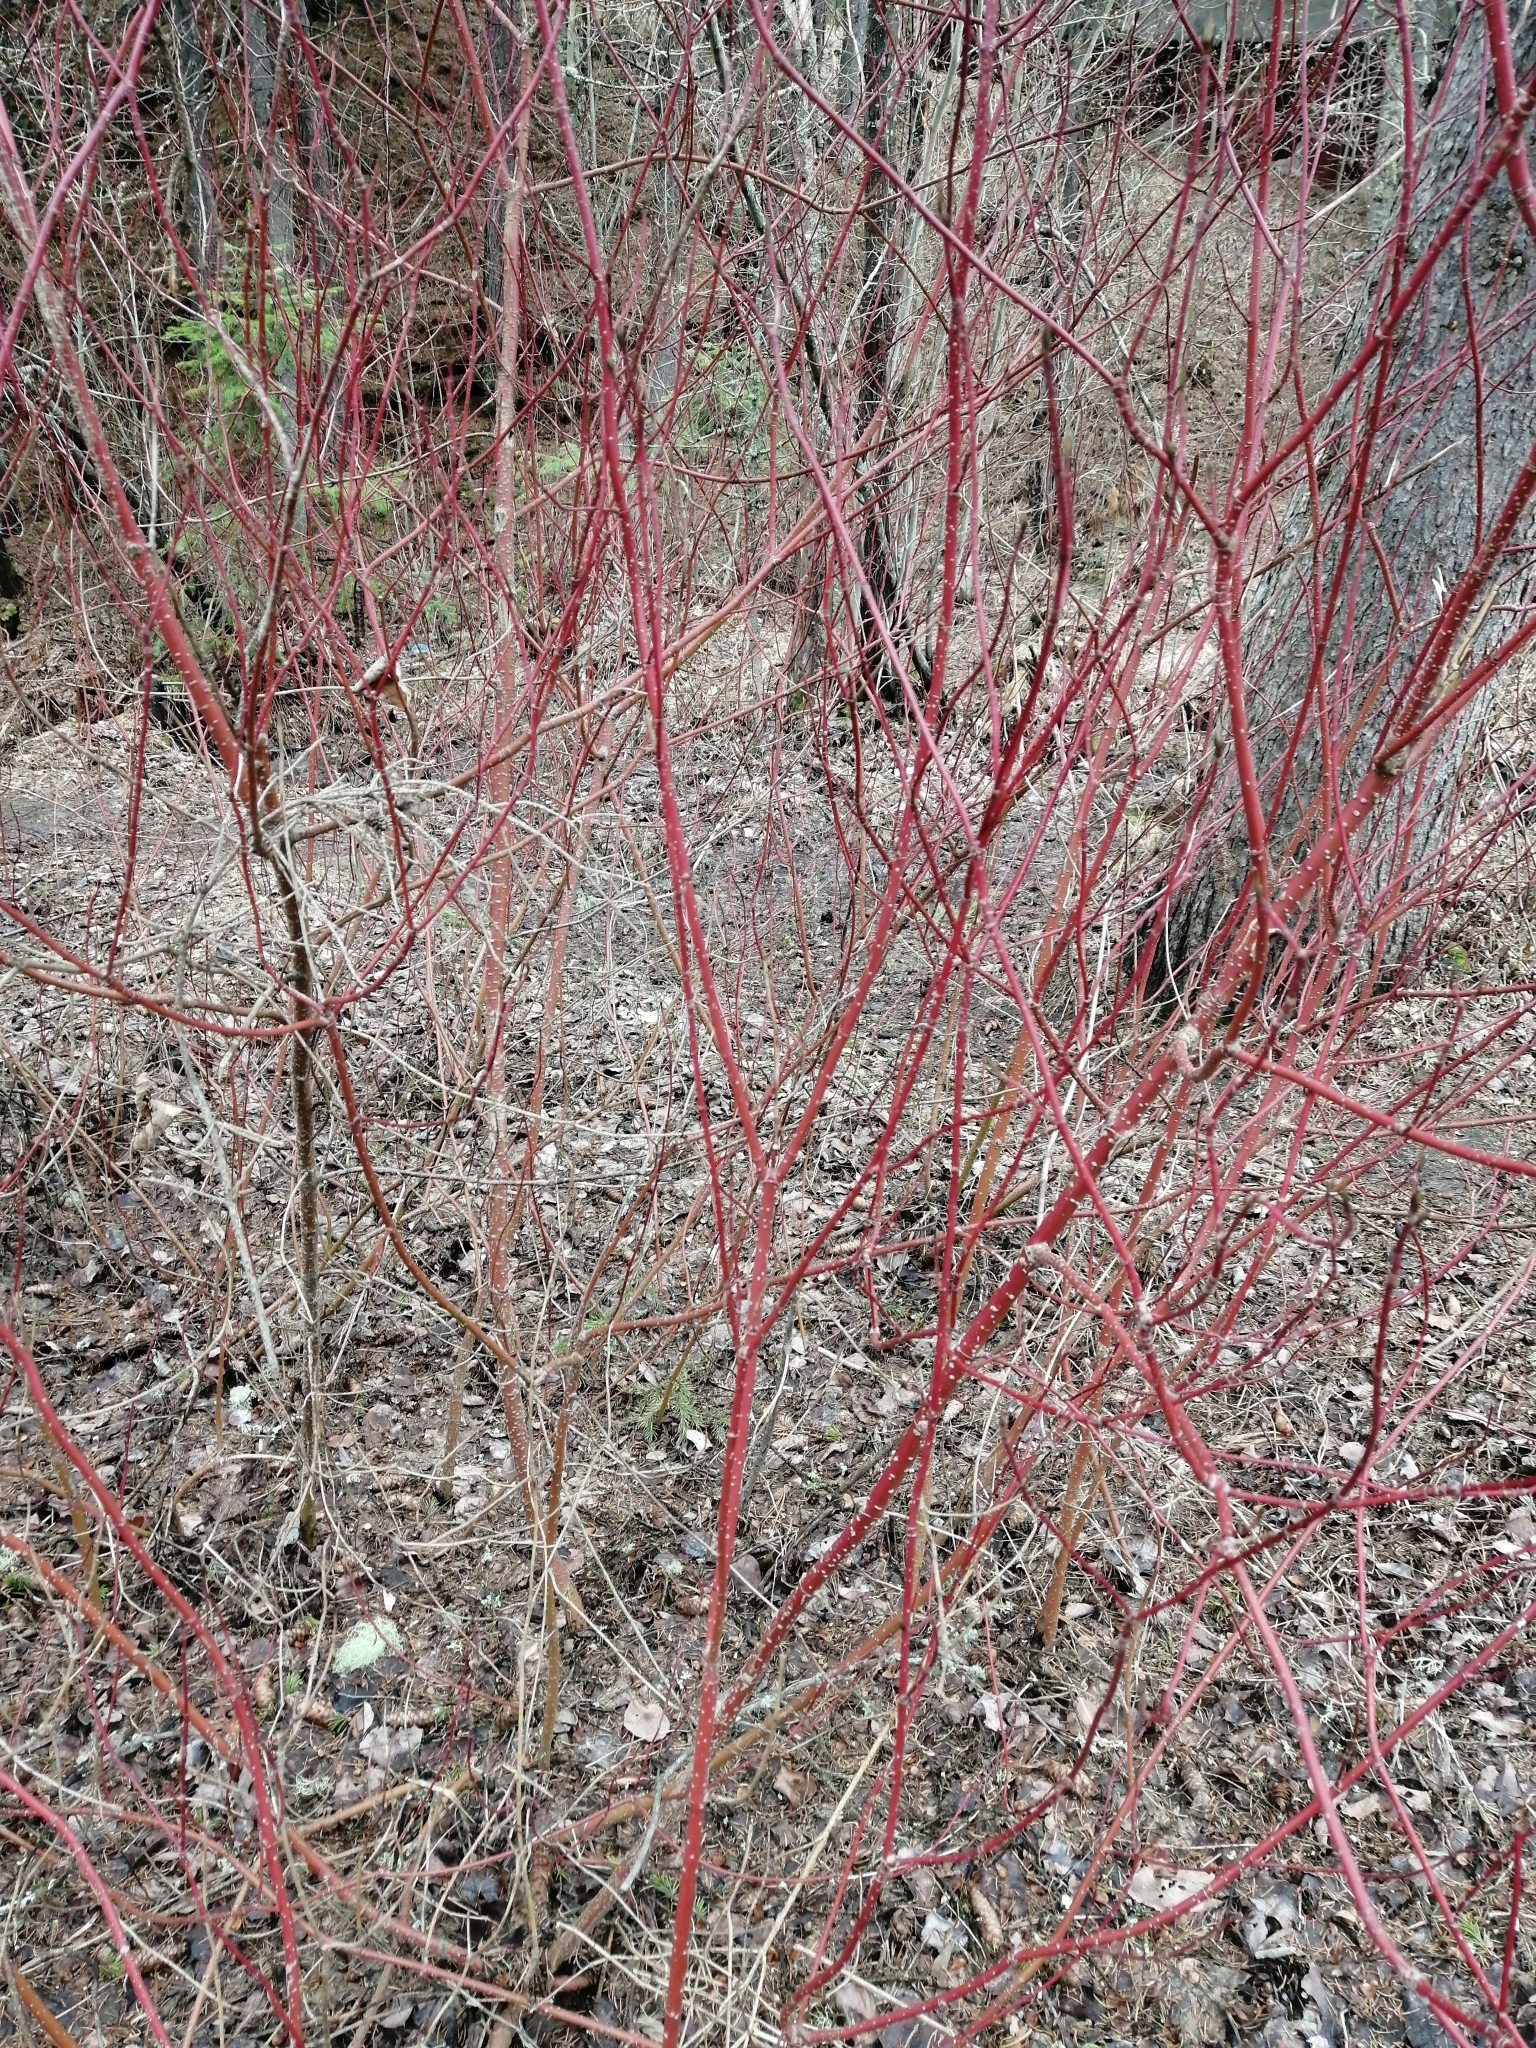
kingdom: Plantae
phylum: Tracheophyta
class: Magnoliopsida
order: Cornales
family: Cornaceae
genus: Cornus
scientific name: Cornus alba
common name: White dogwood
